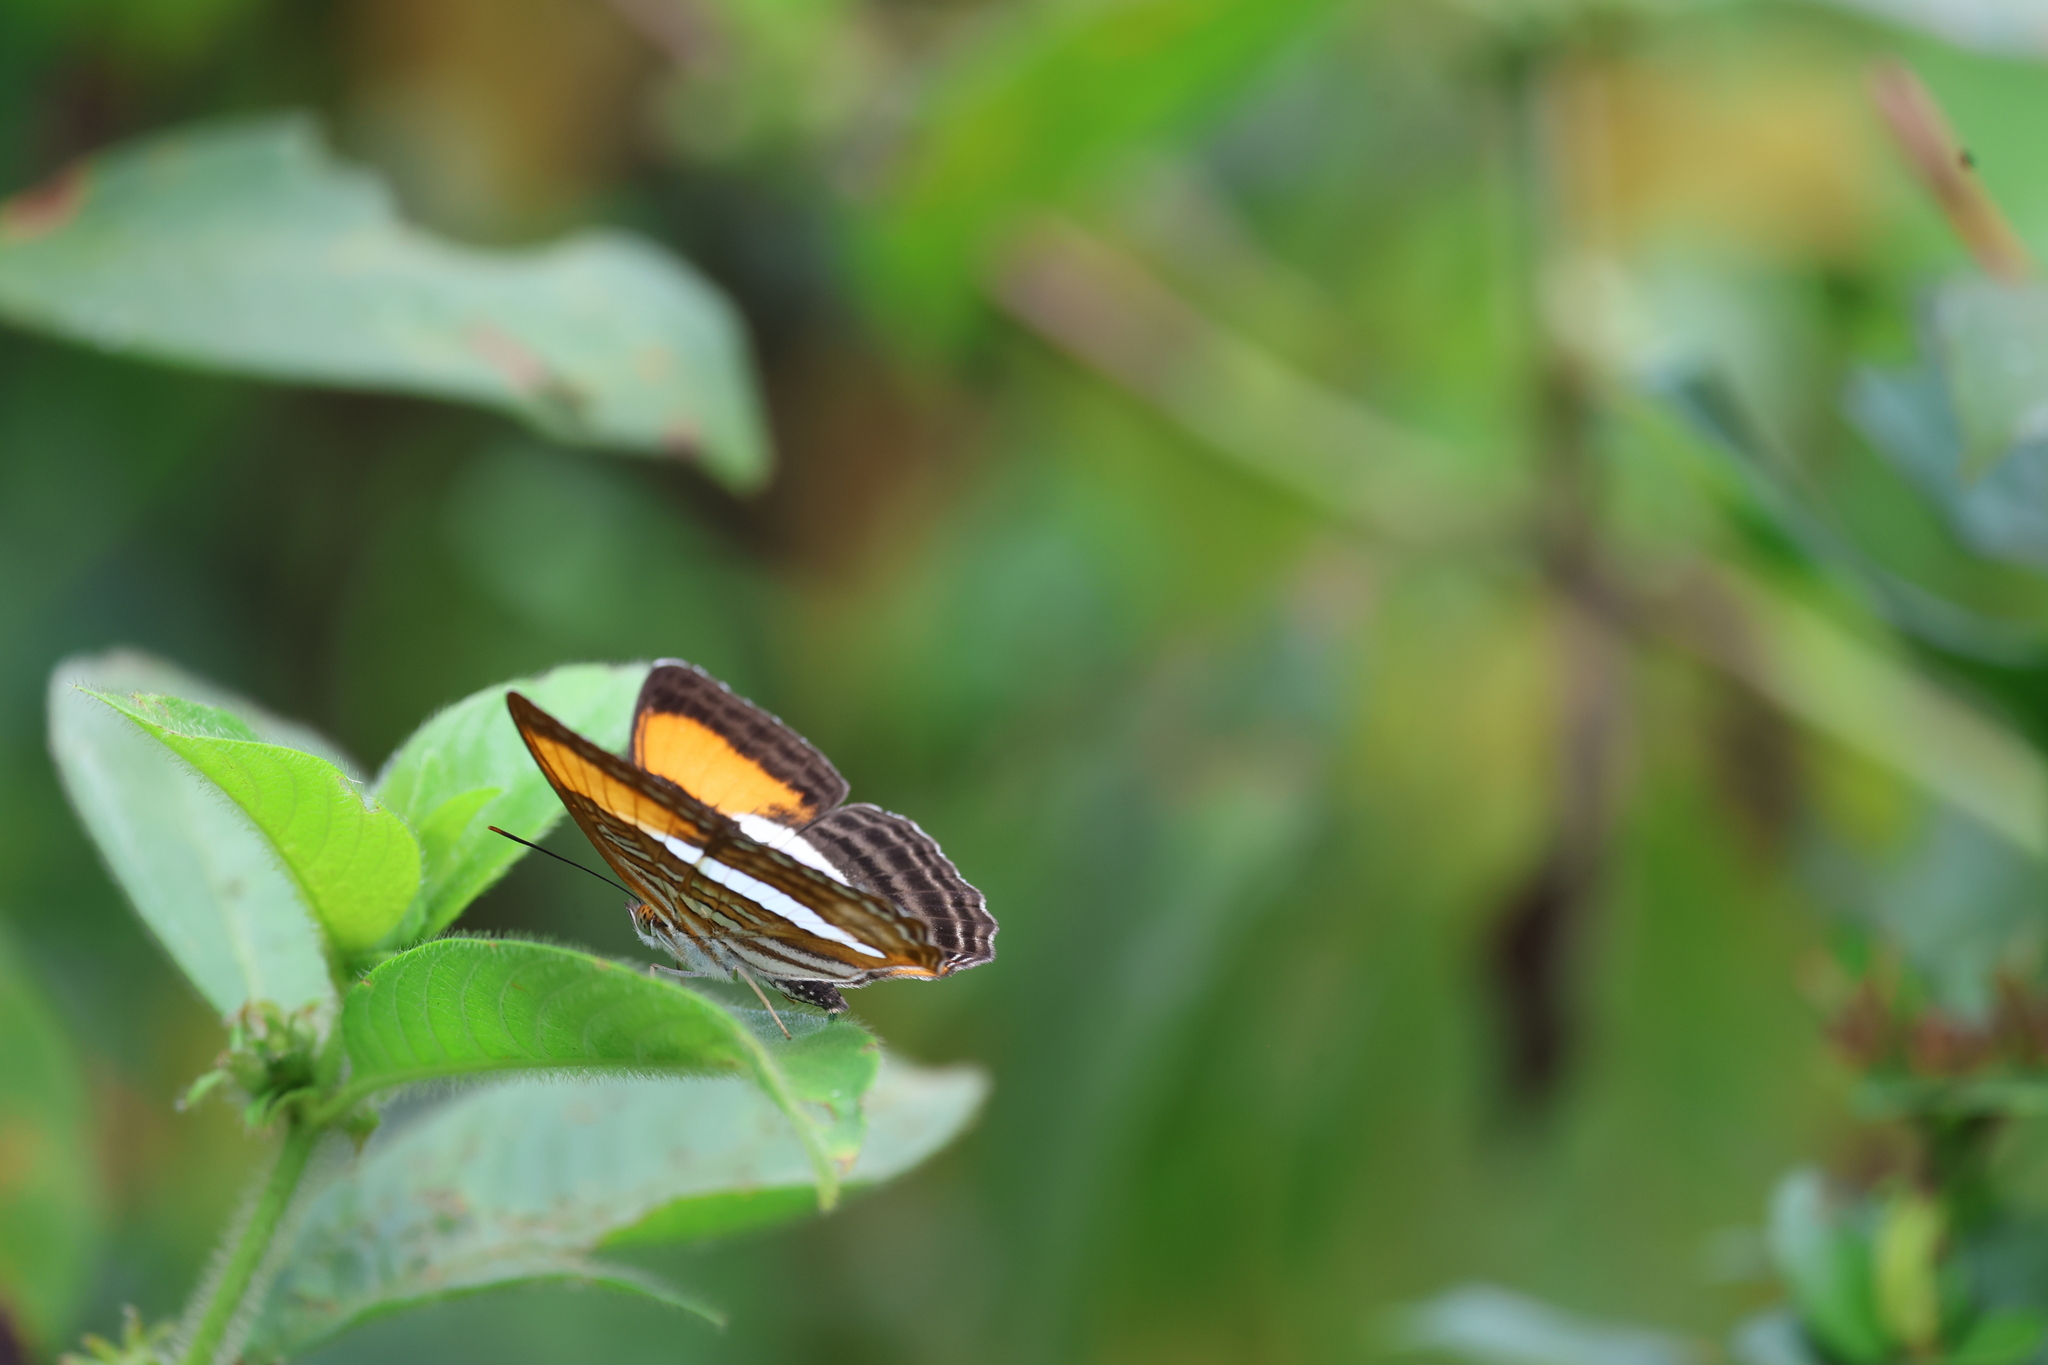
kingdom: Animalia
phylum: Arthropoda
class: Insecta
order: Lepidoptera
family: Nymphalidae
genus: Limenitis
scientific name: Limenitis cytherea
